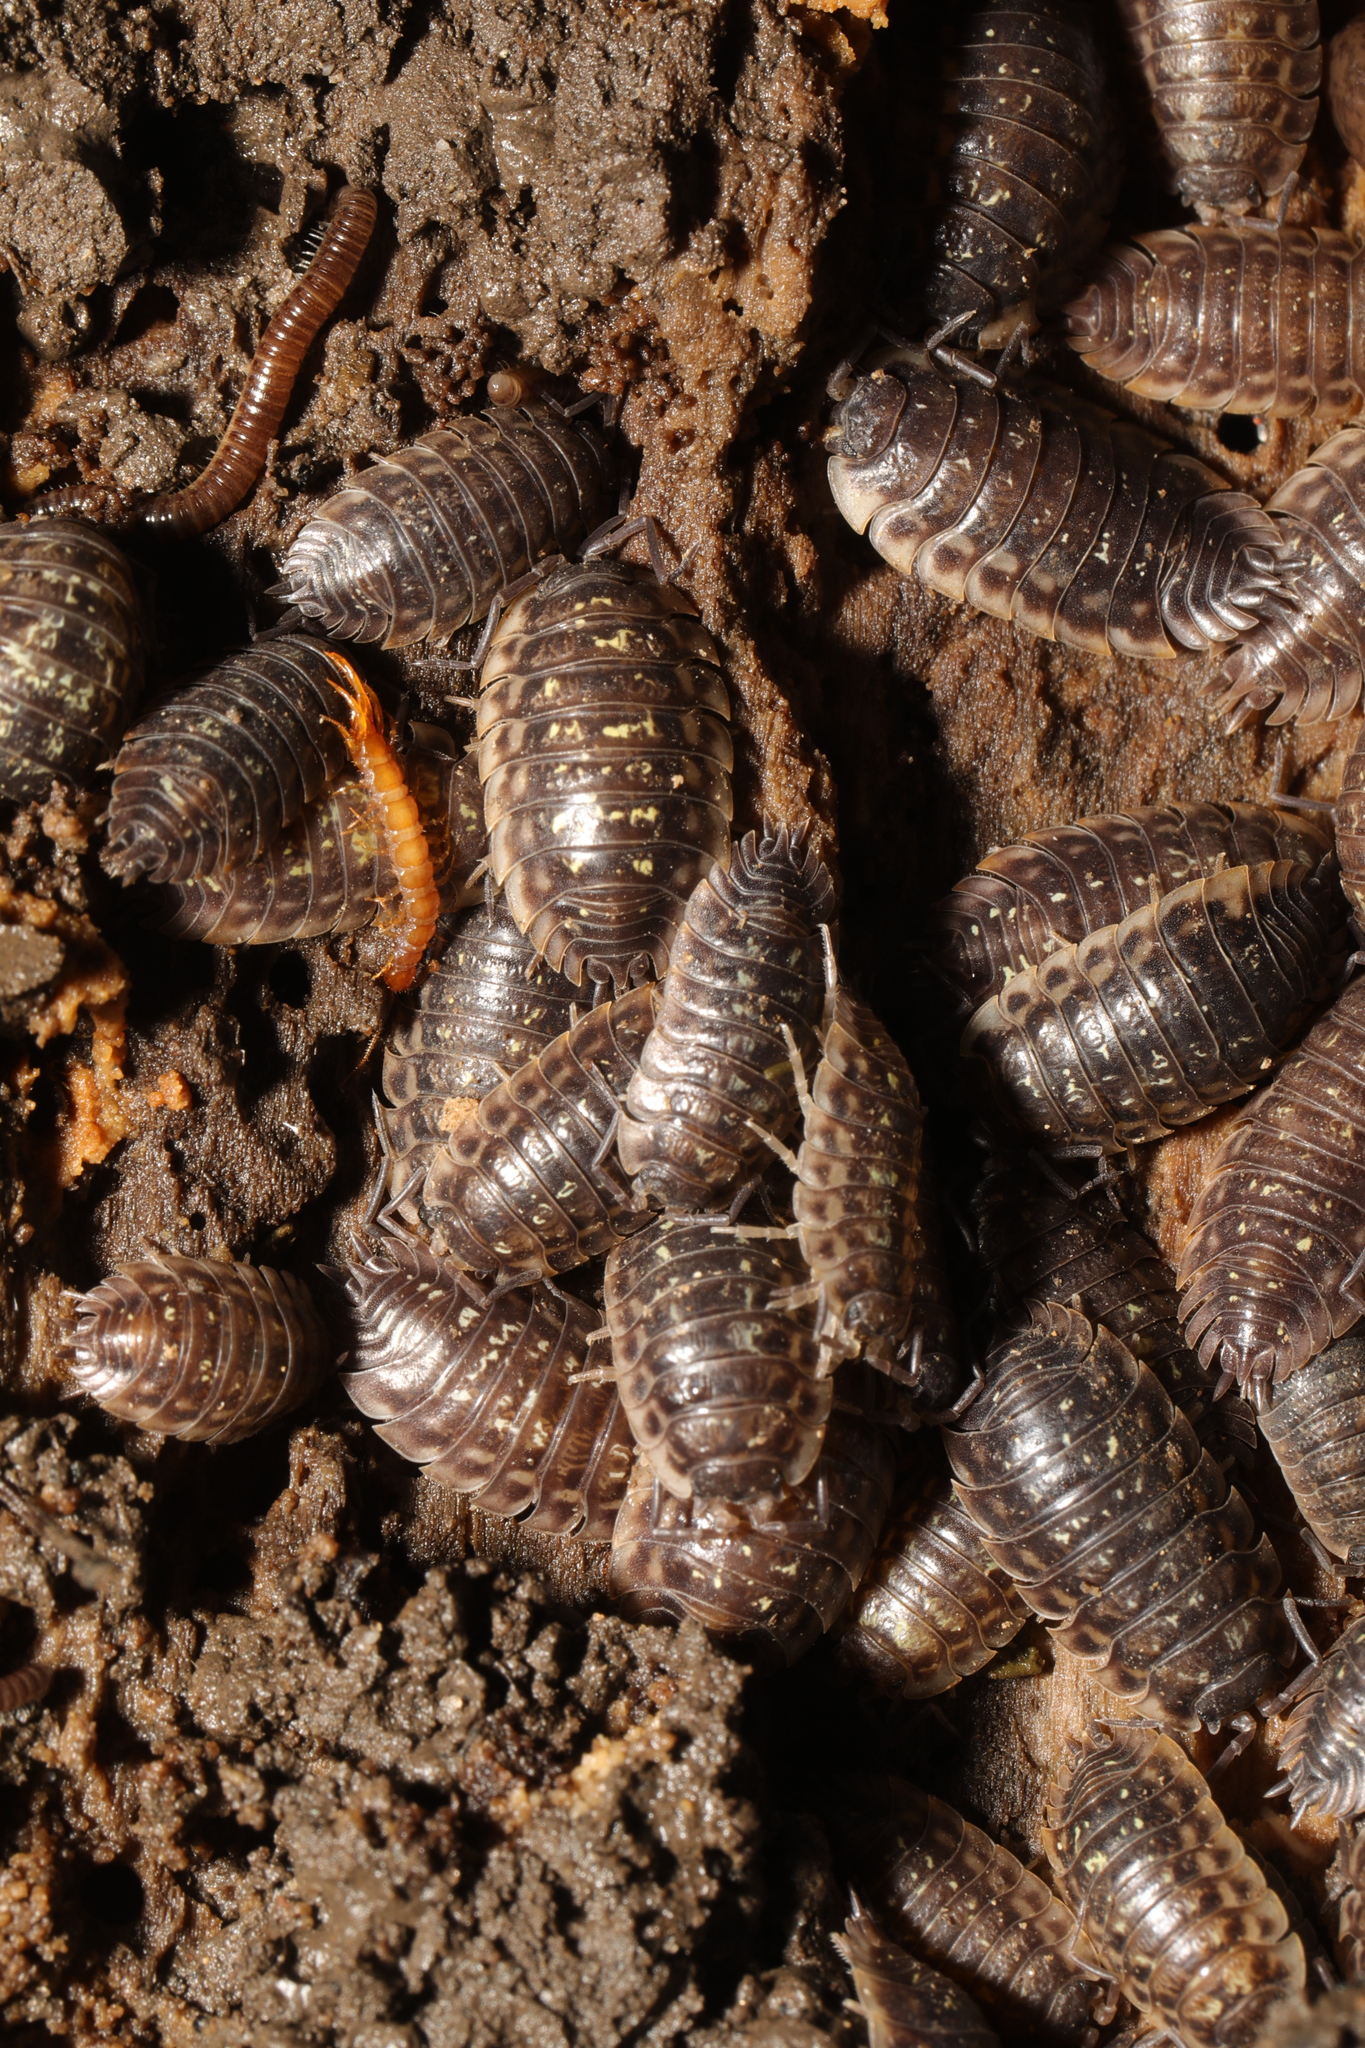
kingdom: Animalia
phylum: Arthropoda
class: Malacostraca
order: Isopoda
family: Oniscidae
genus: Oniscus
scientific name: Oniscus asellus
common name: Common shiny woodlouse
